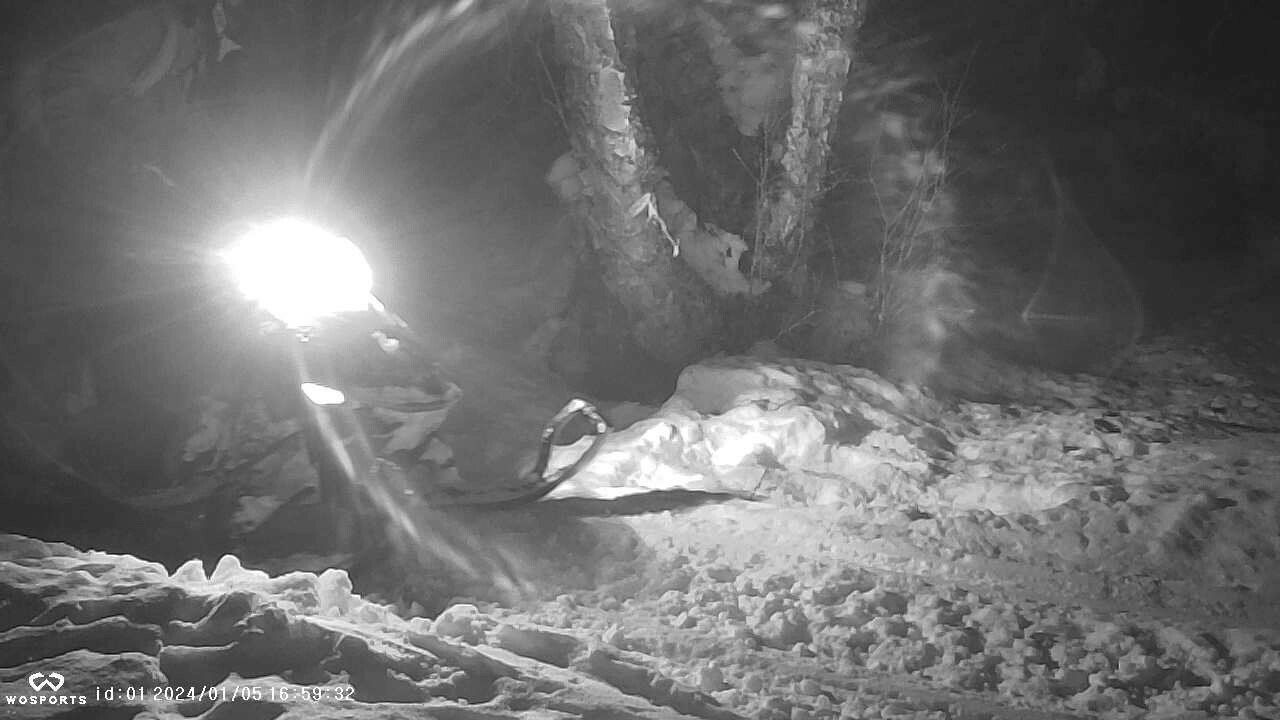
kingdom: Animalia
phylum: Chordata
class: Mammalia
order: Carnivora
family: Mustelidae
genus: Martes
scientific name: Martes americana
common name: American marten
